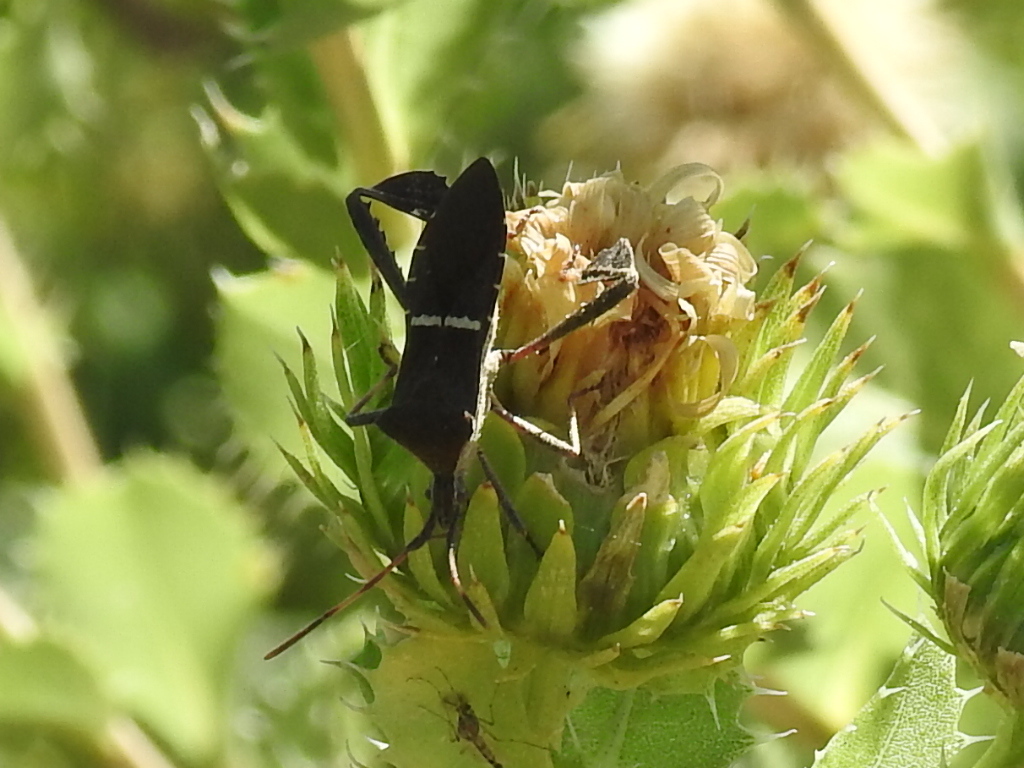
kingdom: Animalia
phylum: Arthropoda
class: Insecta
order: Hemiptera
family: Coreidae
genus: Leptoglossus
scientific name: Leptoglossus phyllopus
